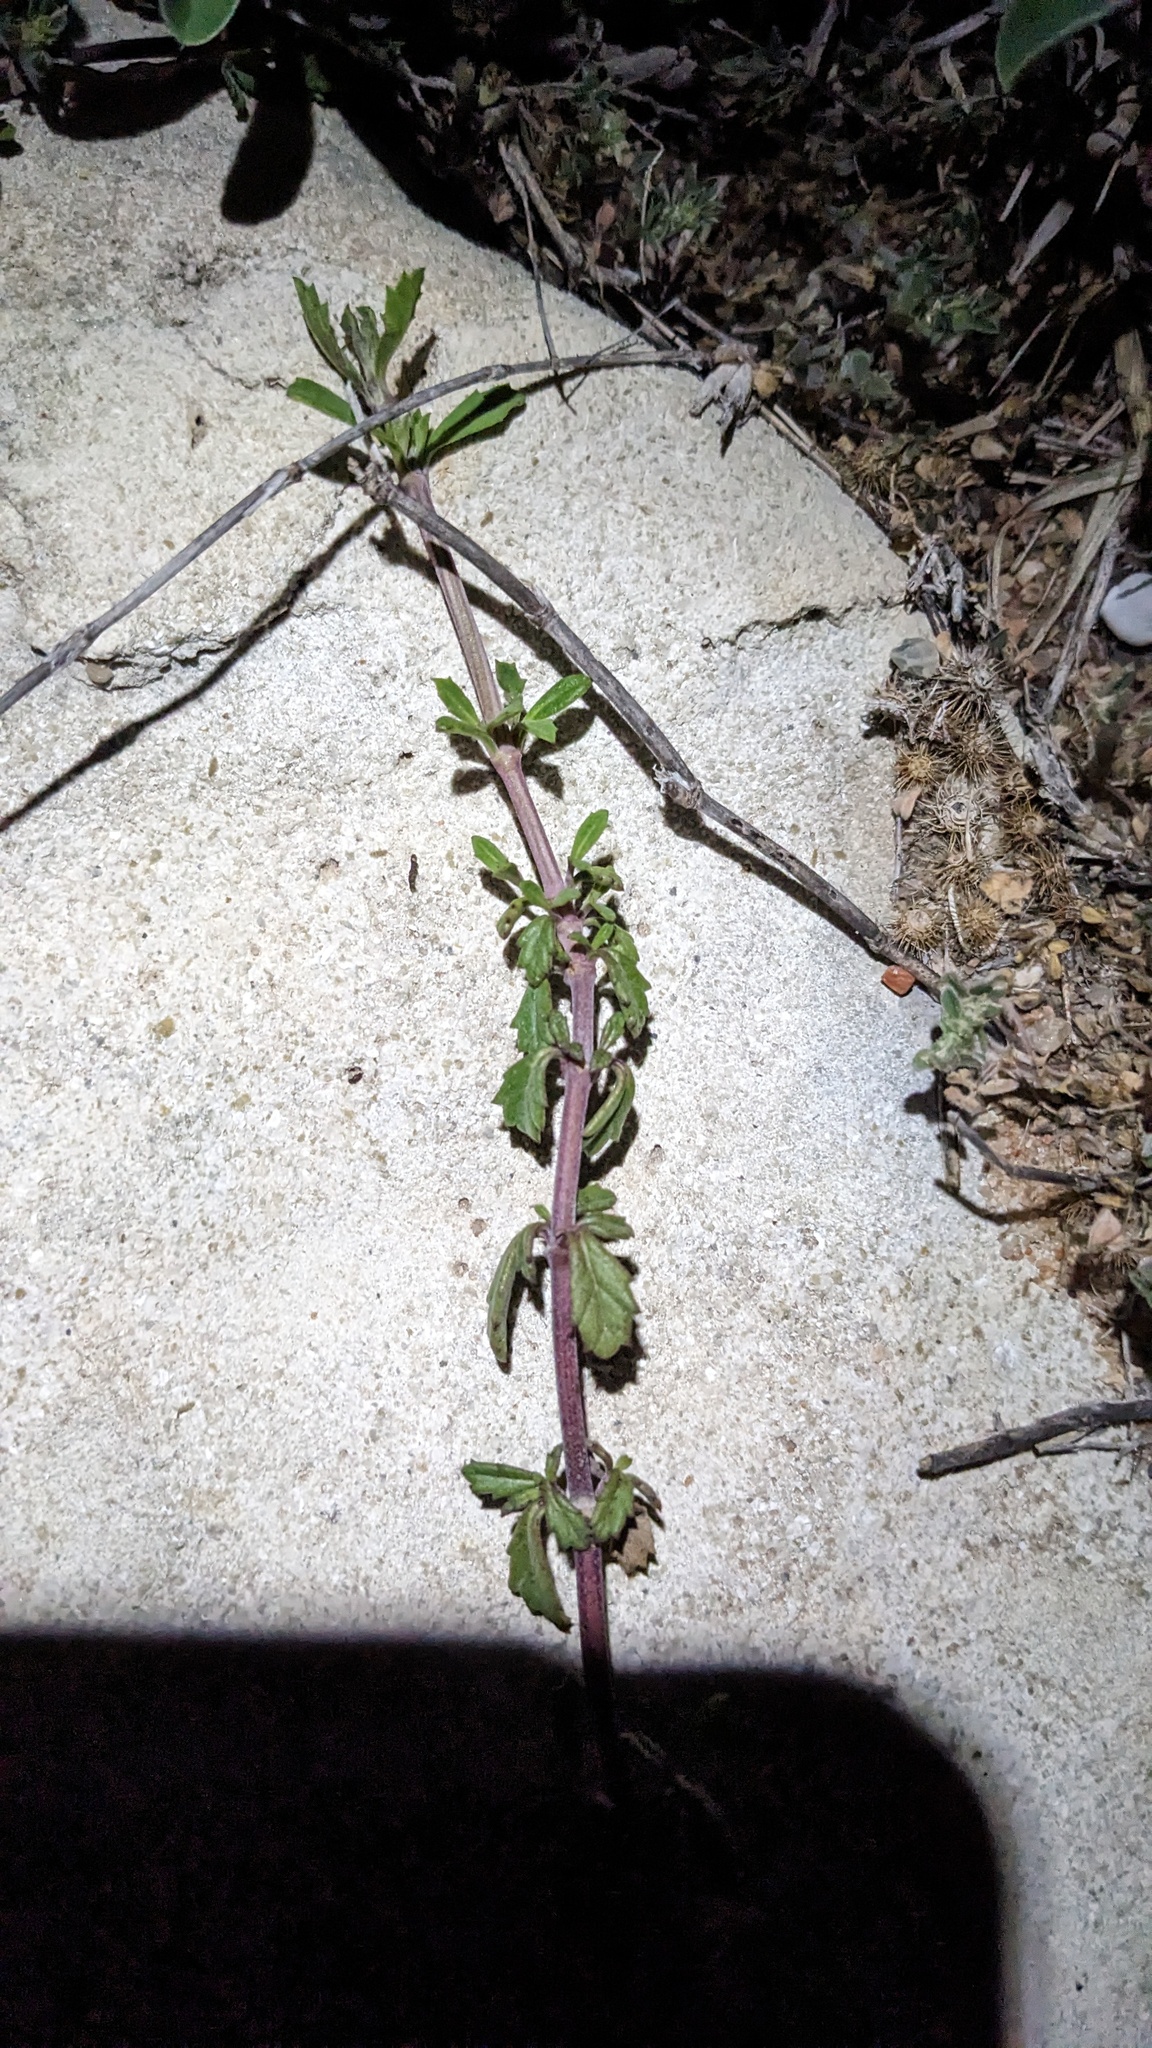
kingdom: Plantae
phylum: Tracheophyta
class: Magnoliopsida
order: Lamiales
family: Verbenaceae
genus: Phyla
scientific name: Phyla nodiflora
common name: Frogfruit
